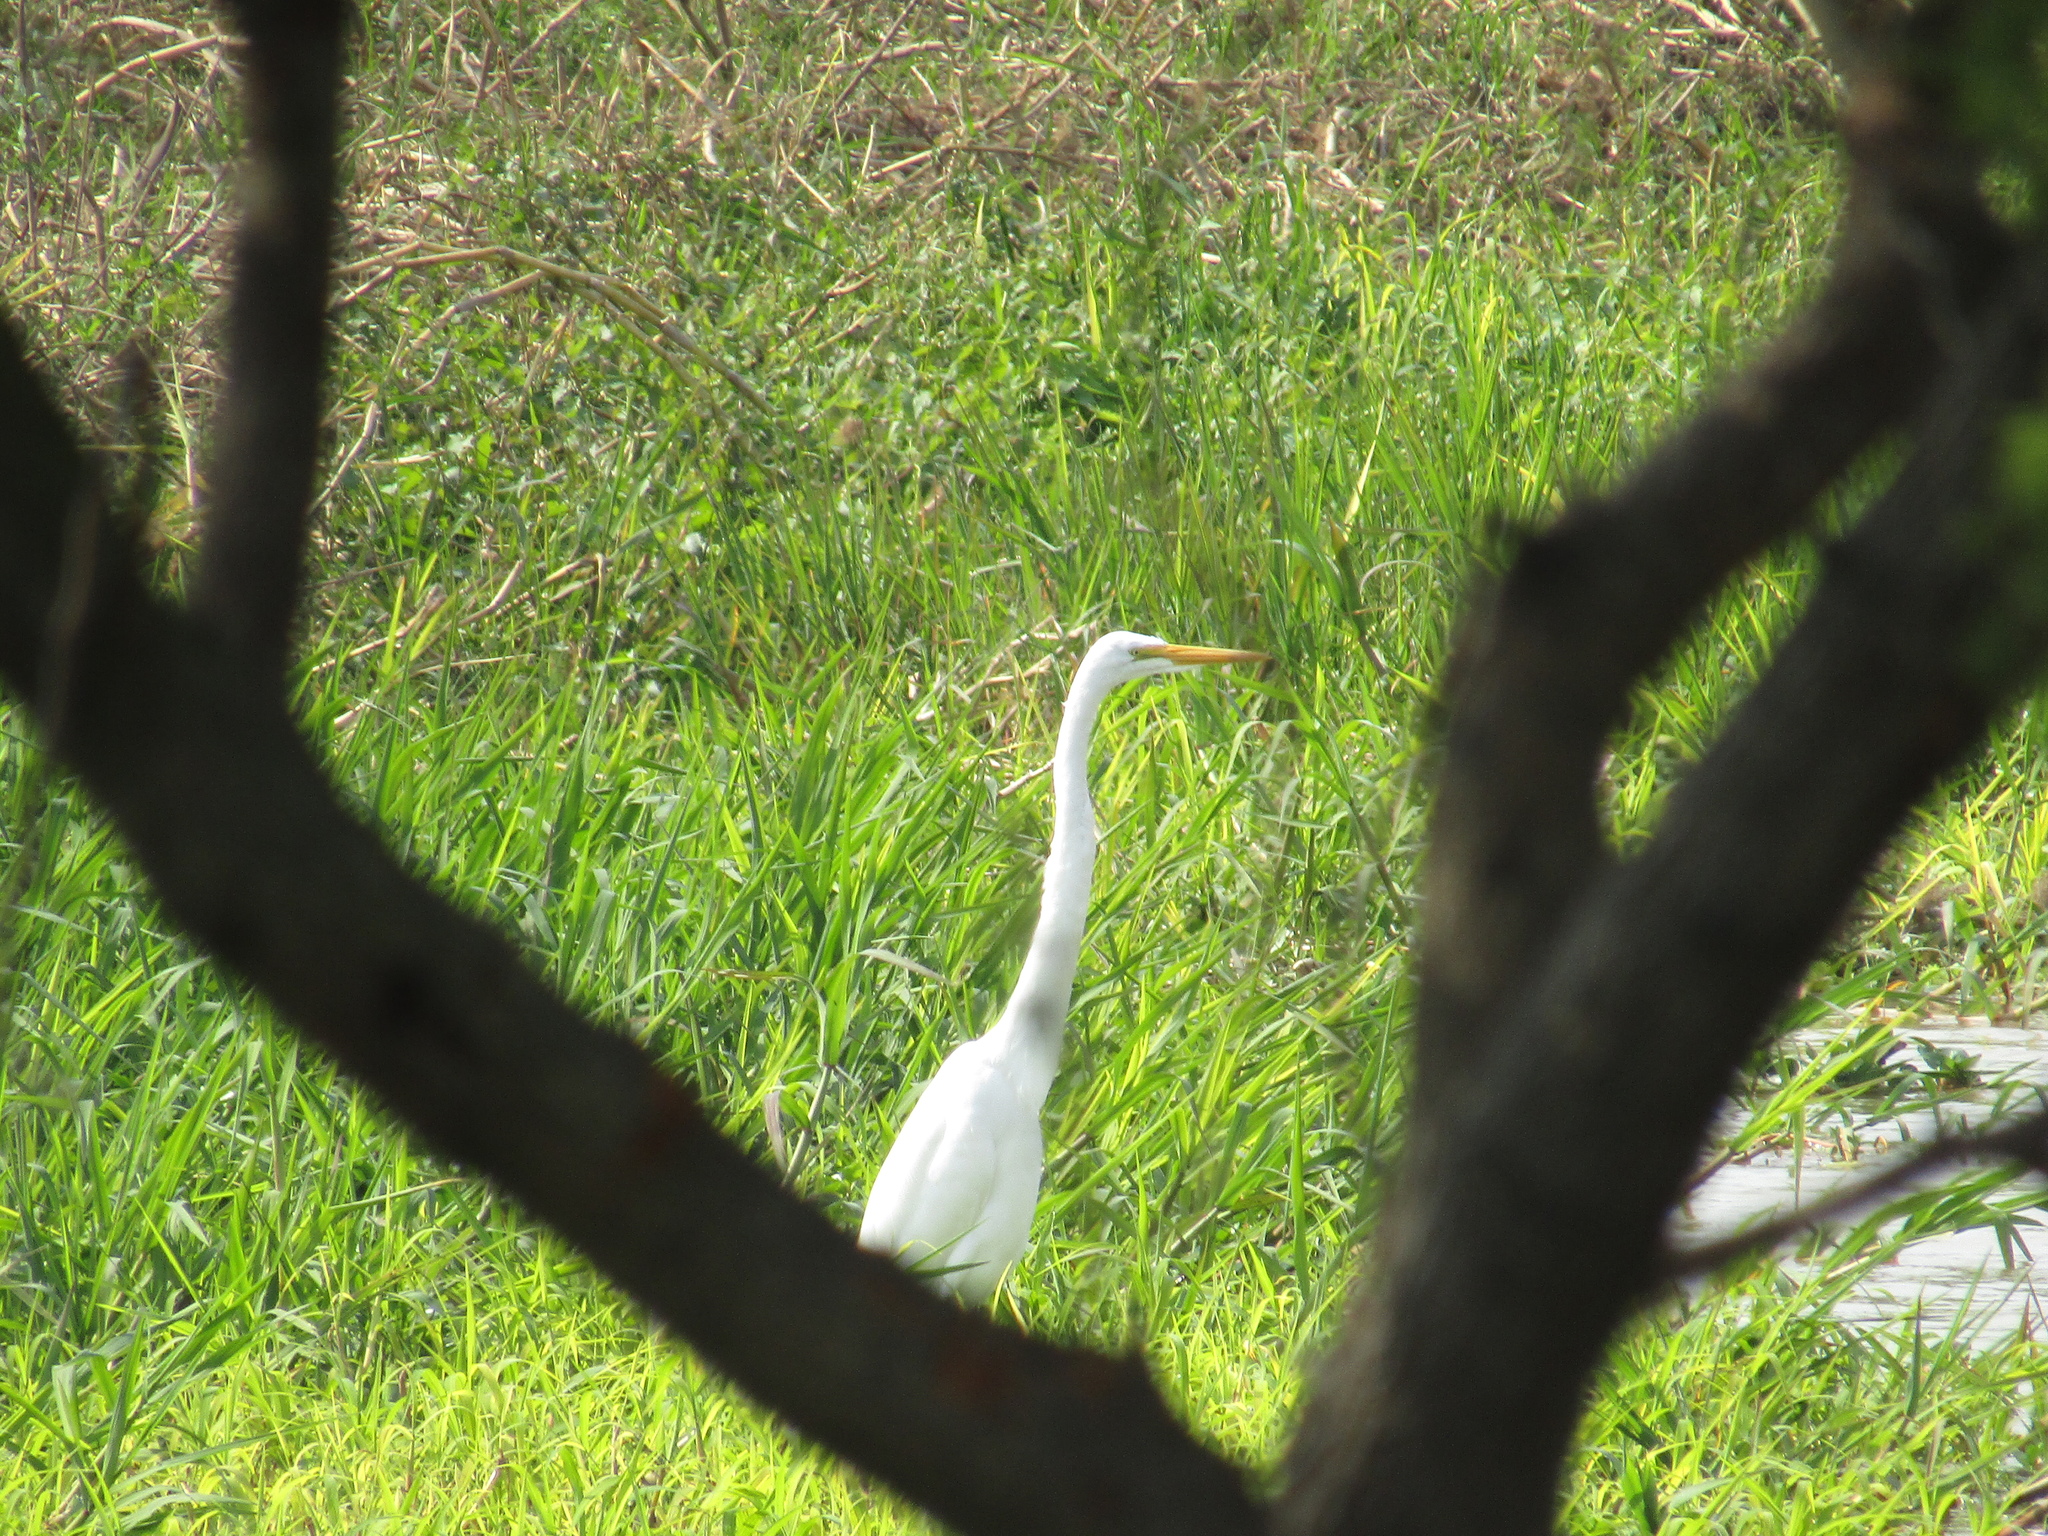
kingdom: Animalia
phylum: Chordata
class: Aves
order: Pelecaniformes
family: Ardeidae
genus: Ardea
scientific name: Ardea alba
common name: Great egret
